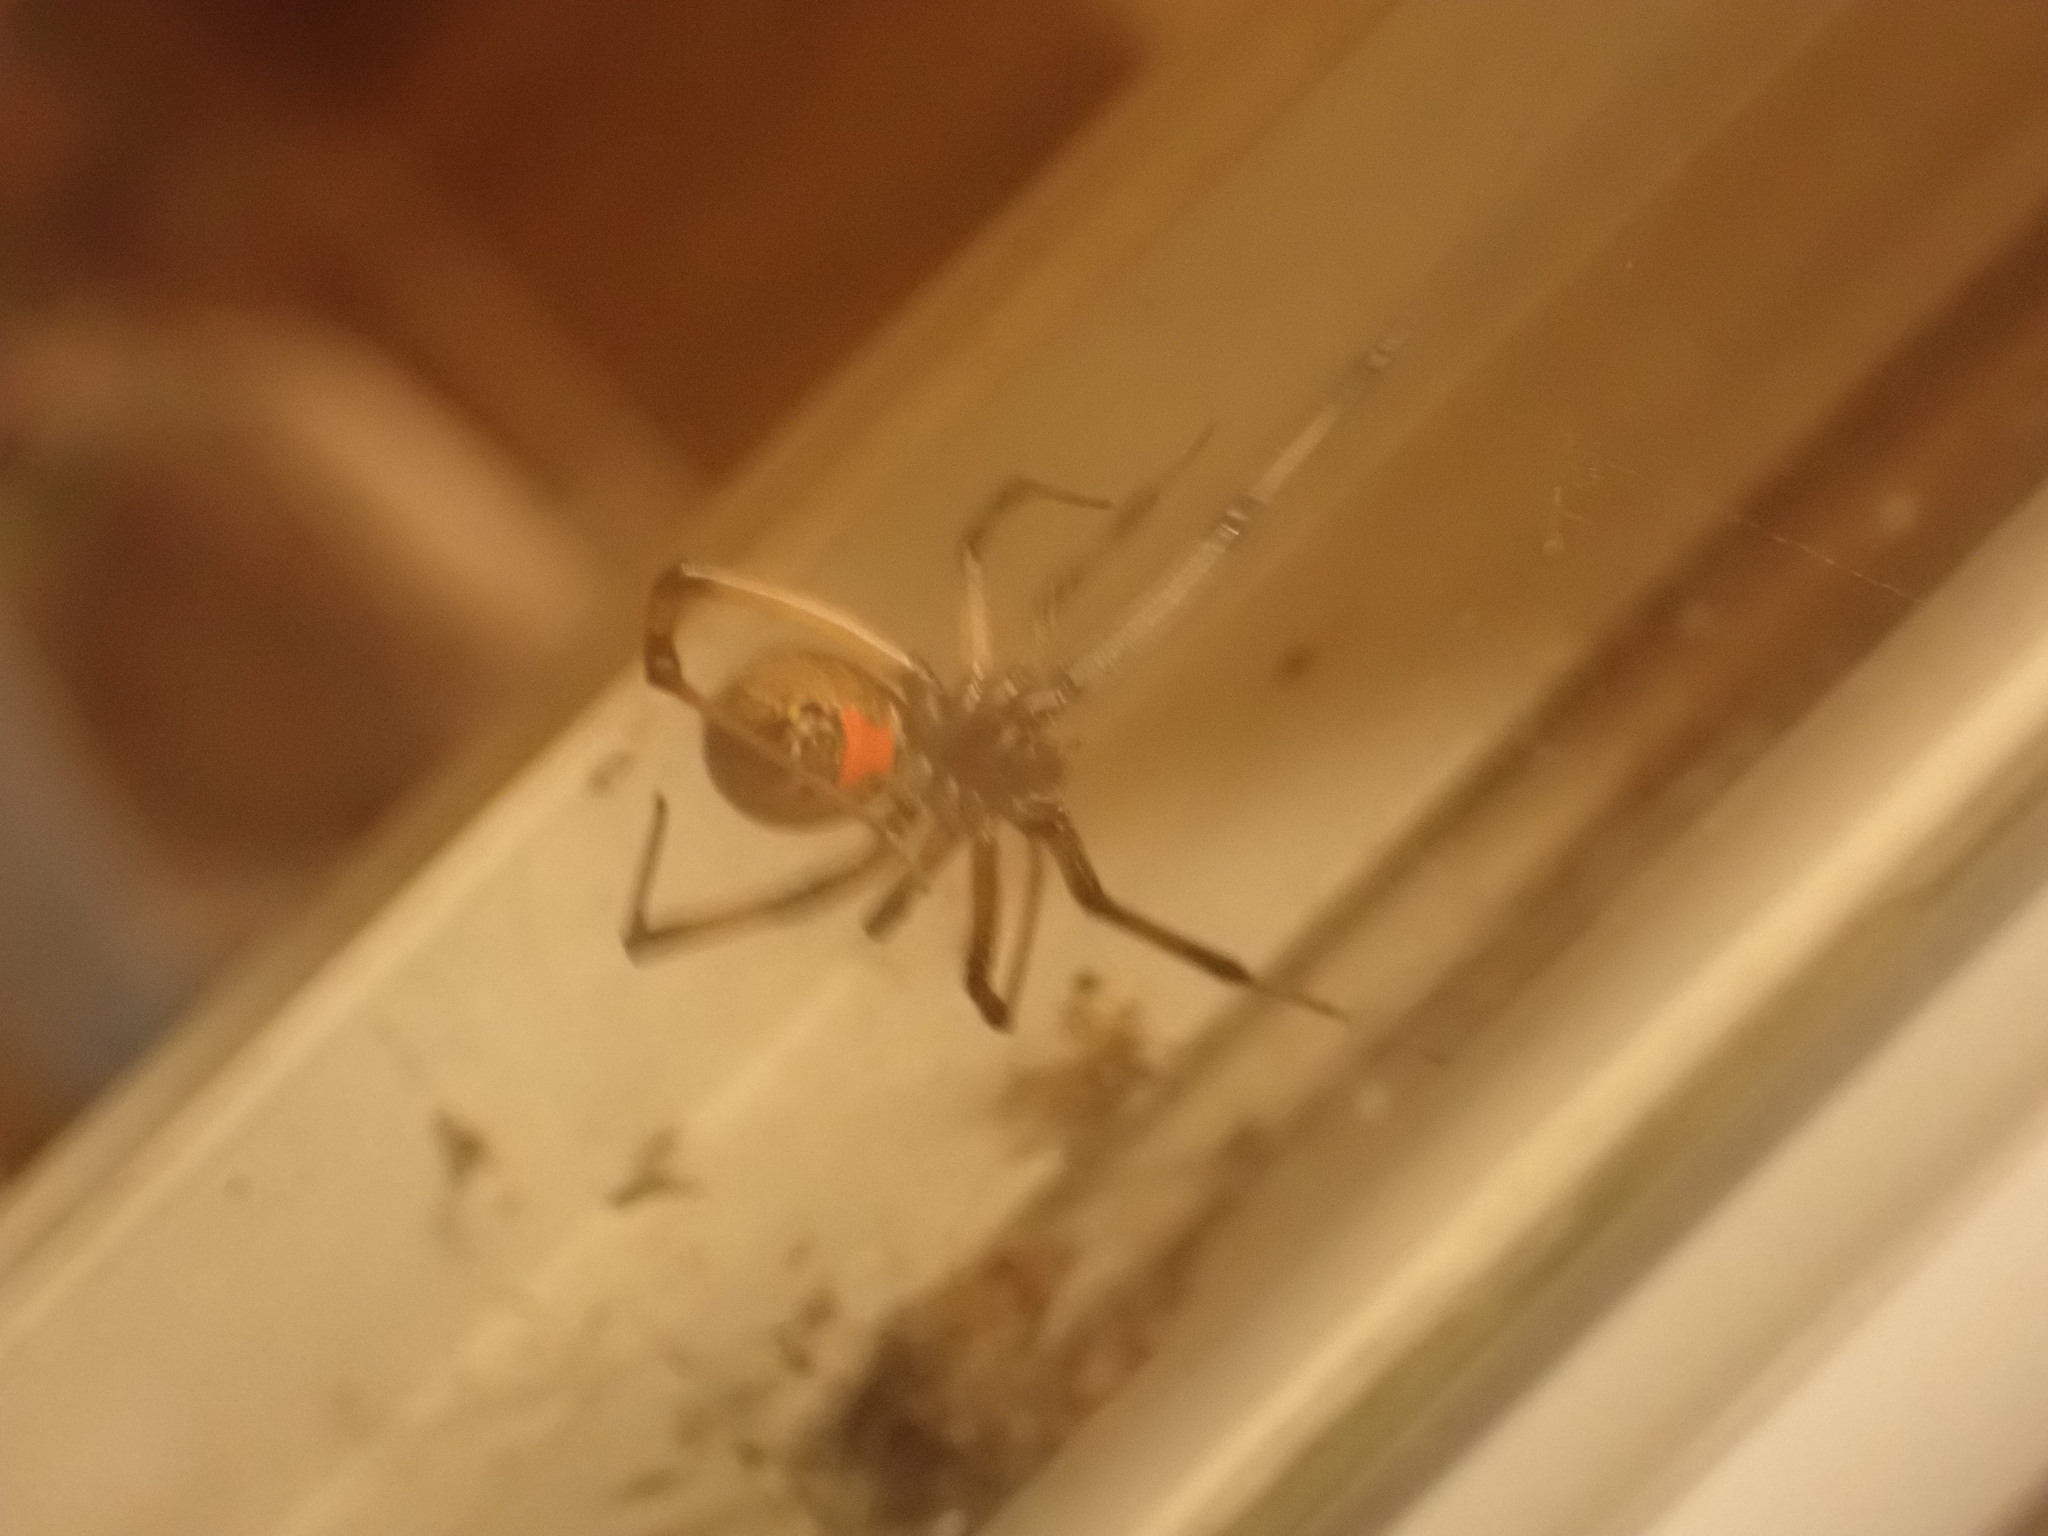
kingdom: Animalia
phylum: Arthropoda
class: Arachnida
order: Araneae
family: Theridiidae
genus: Latrodectus
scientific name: Latrodectus geometricus
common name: Brown widow spider
